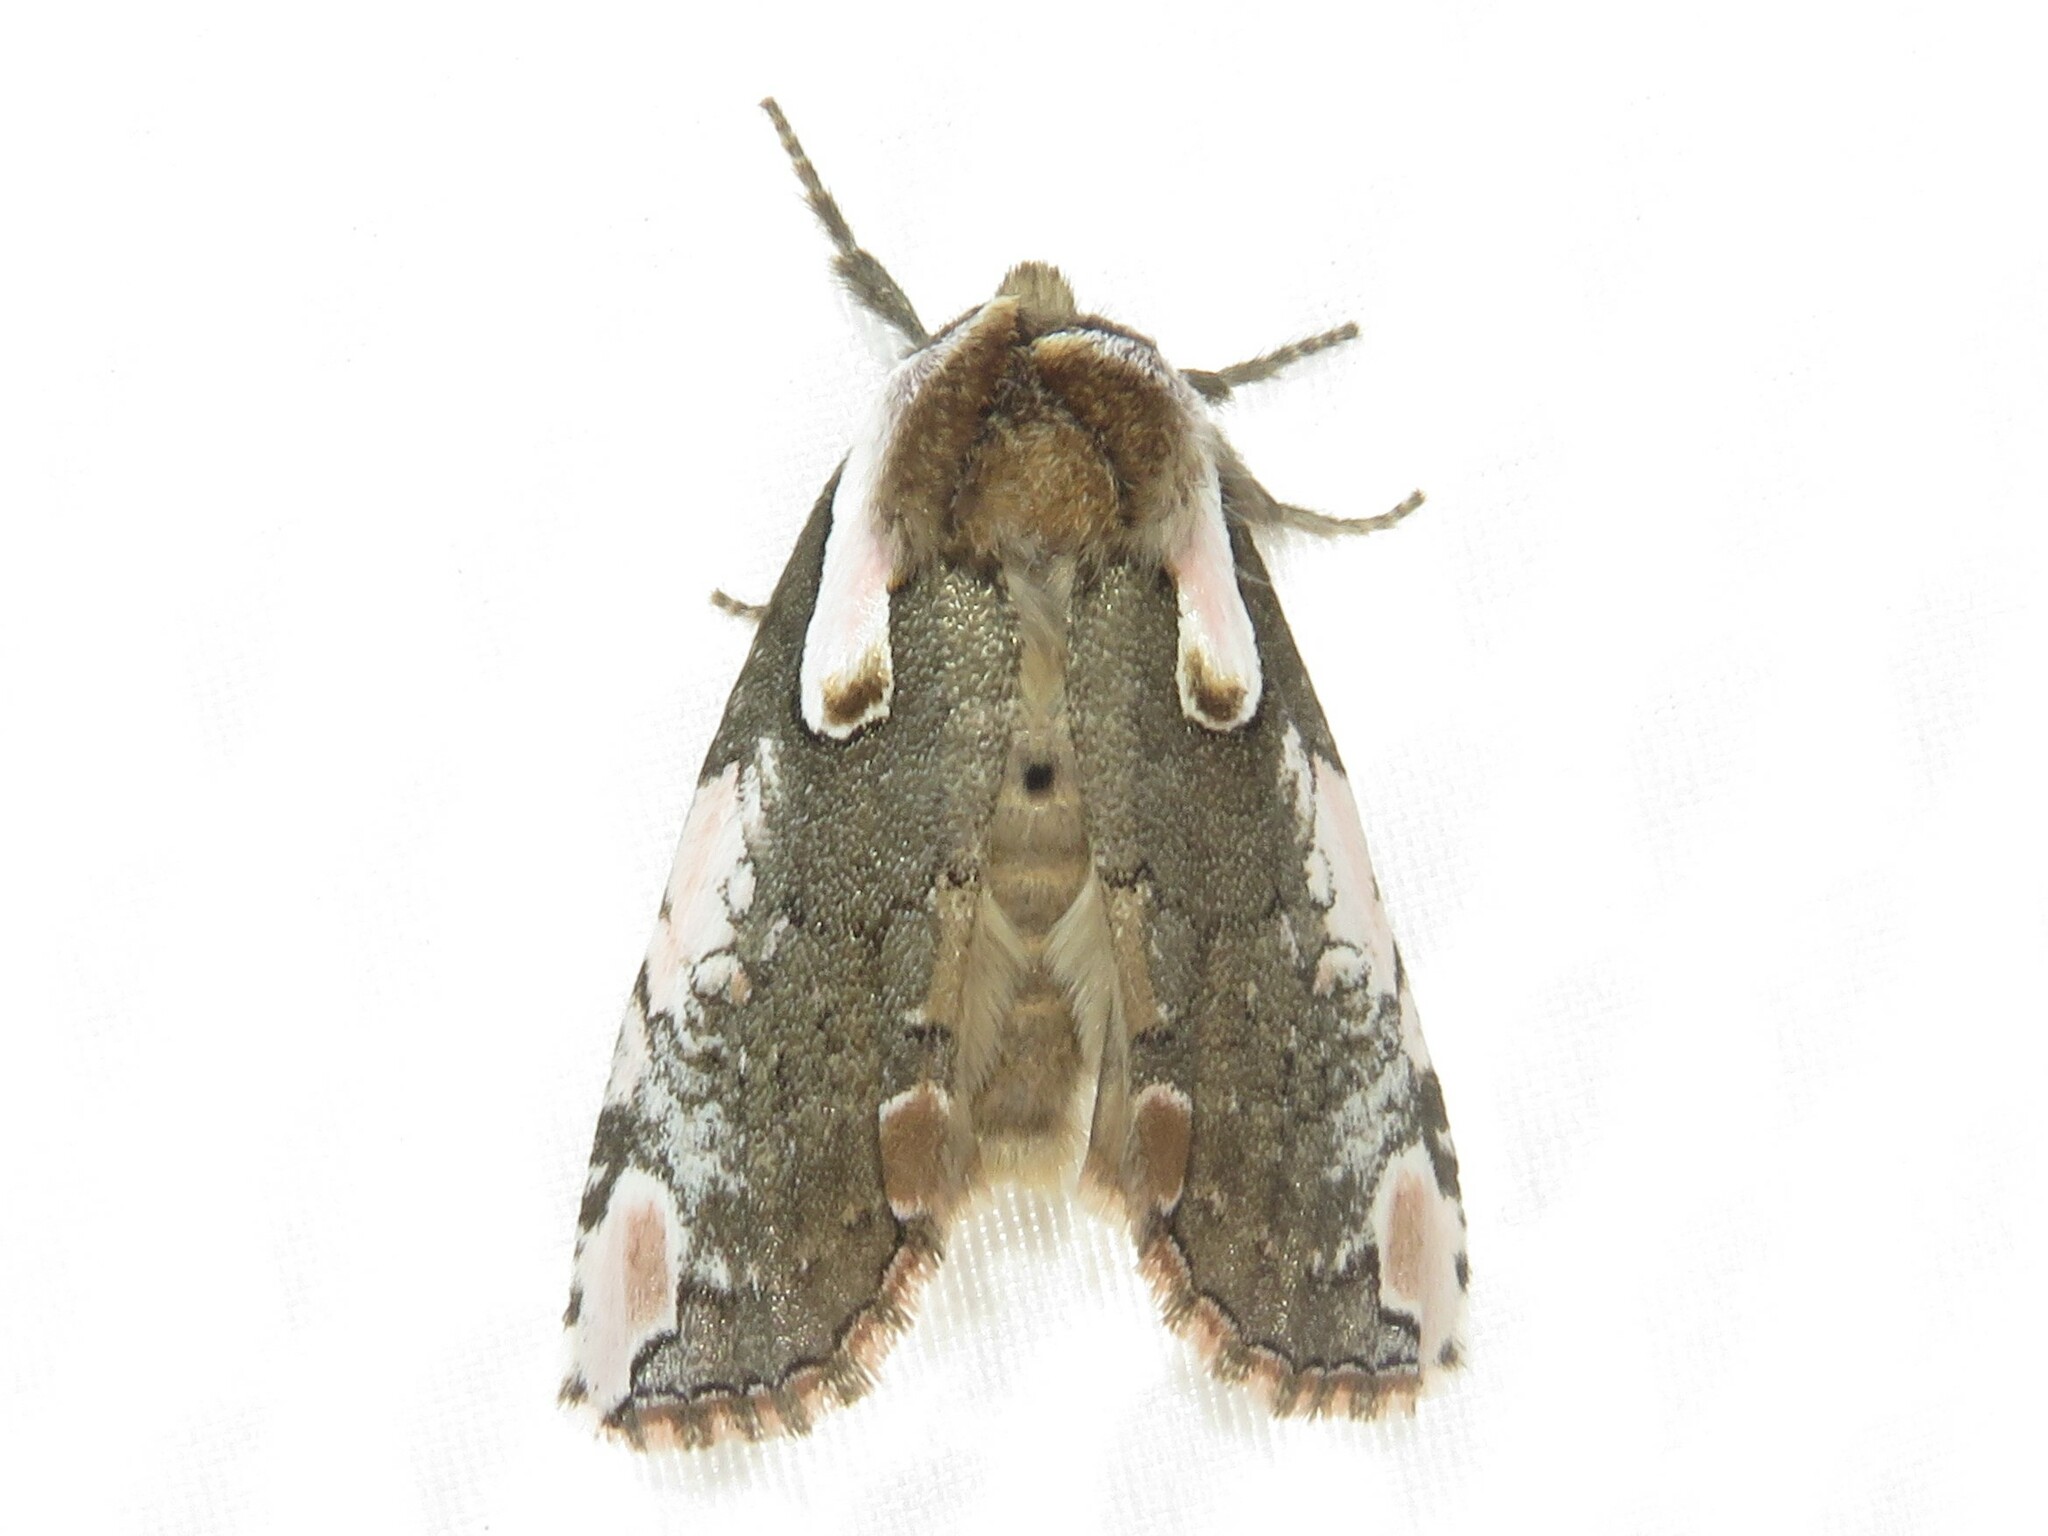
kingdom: Animalia
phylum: Arthropoda
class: Insecta
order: Lepidoptera
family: Drepanidae
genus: Euthyatira
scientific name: Euthyatira pudens
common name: Dogwood thyatirid moth
